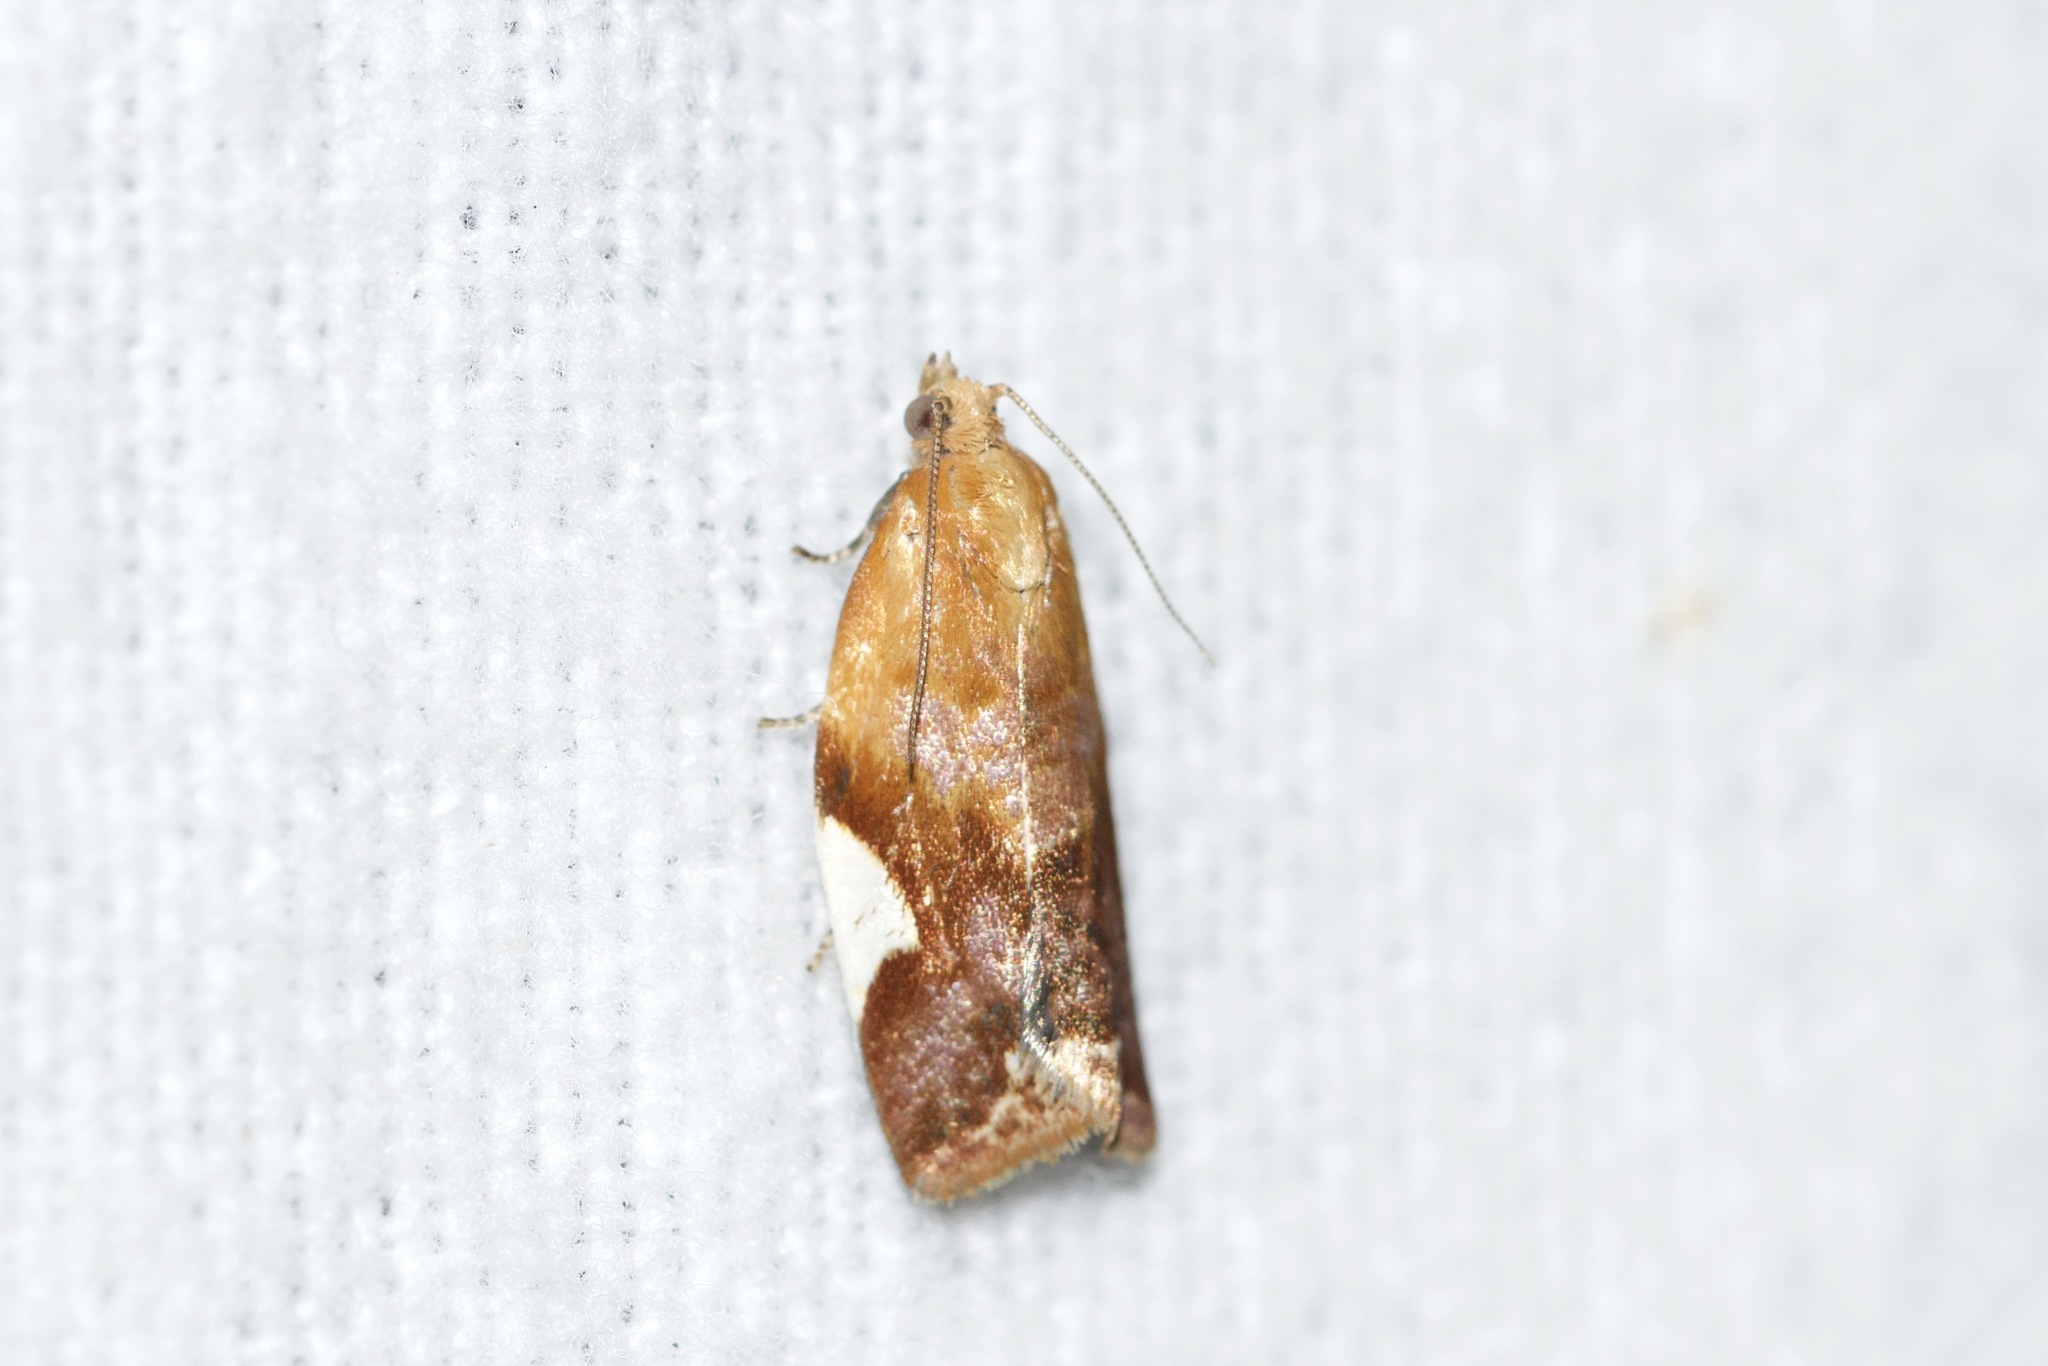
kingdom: Animalia
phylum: Arthropoda
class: Insecta
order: Lepidoptera
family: Tortricidae
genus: Clepsis
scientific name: Clepsis persicana
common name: White triangle tortrix
